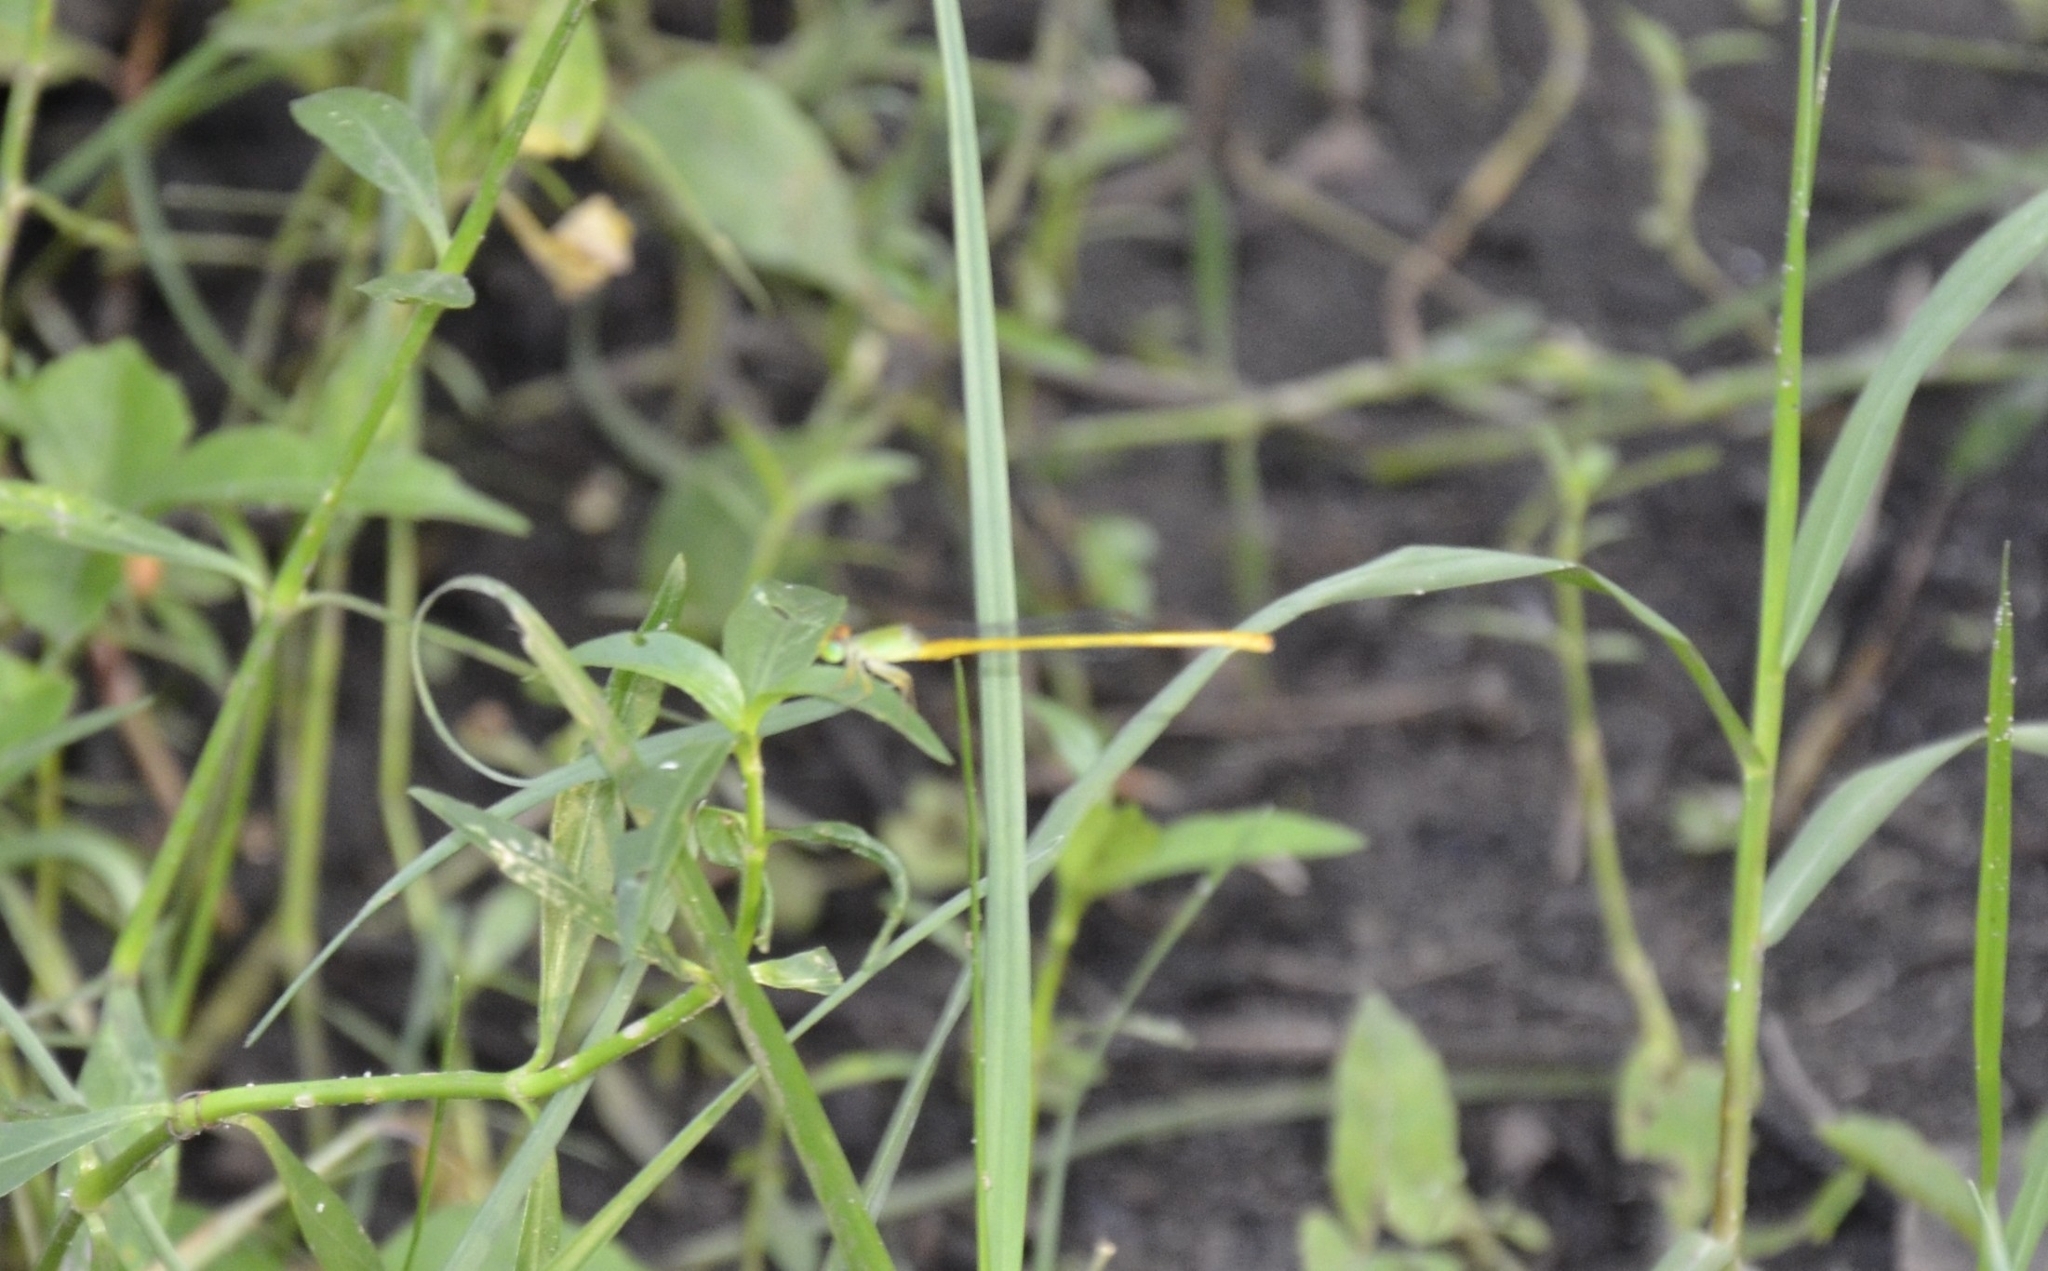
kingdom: Animalia
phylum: Arthropoda
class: Insecta
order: Odonata
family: Coenagrionidae
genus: Ceriagrion
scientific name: Ceriagrion coromandelianum
